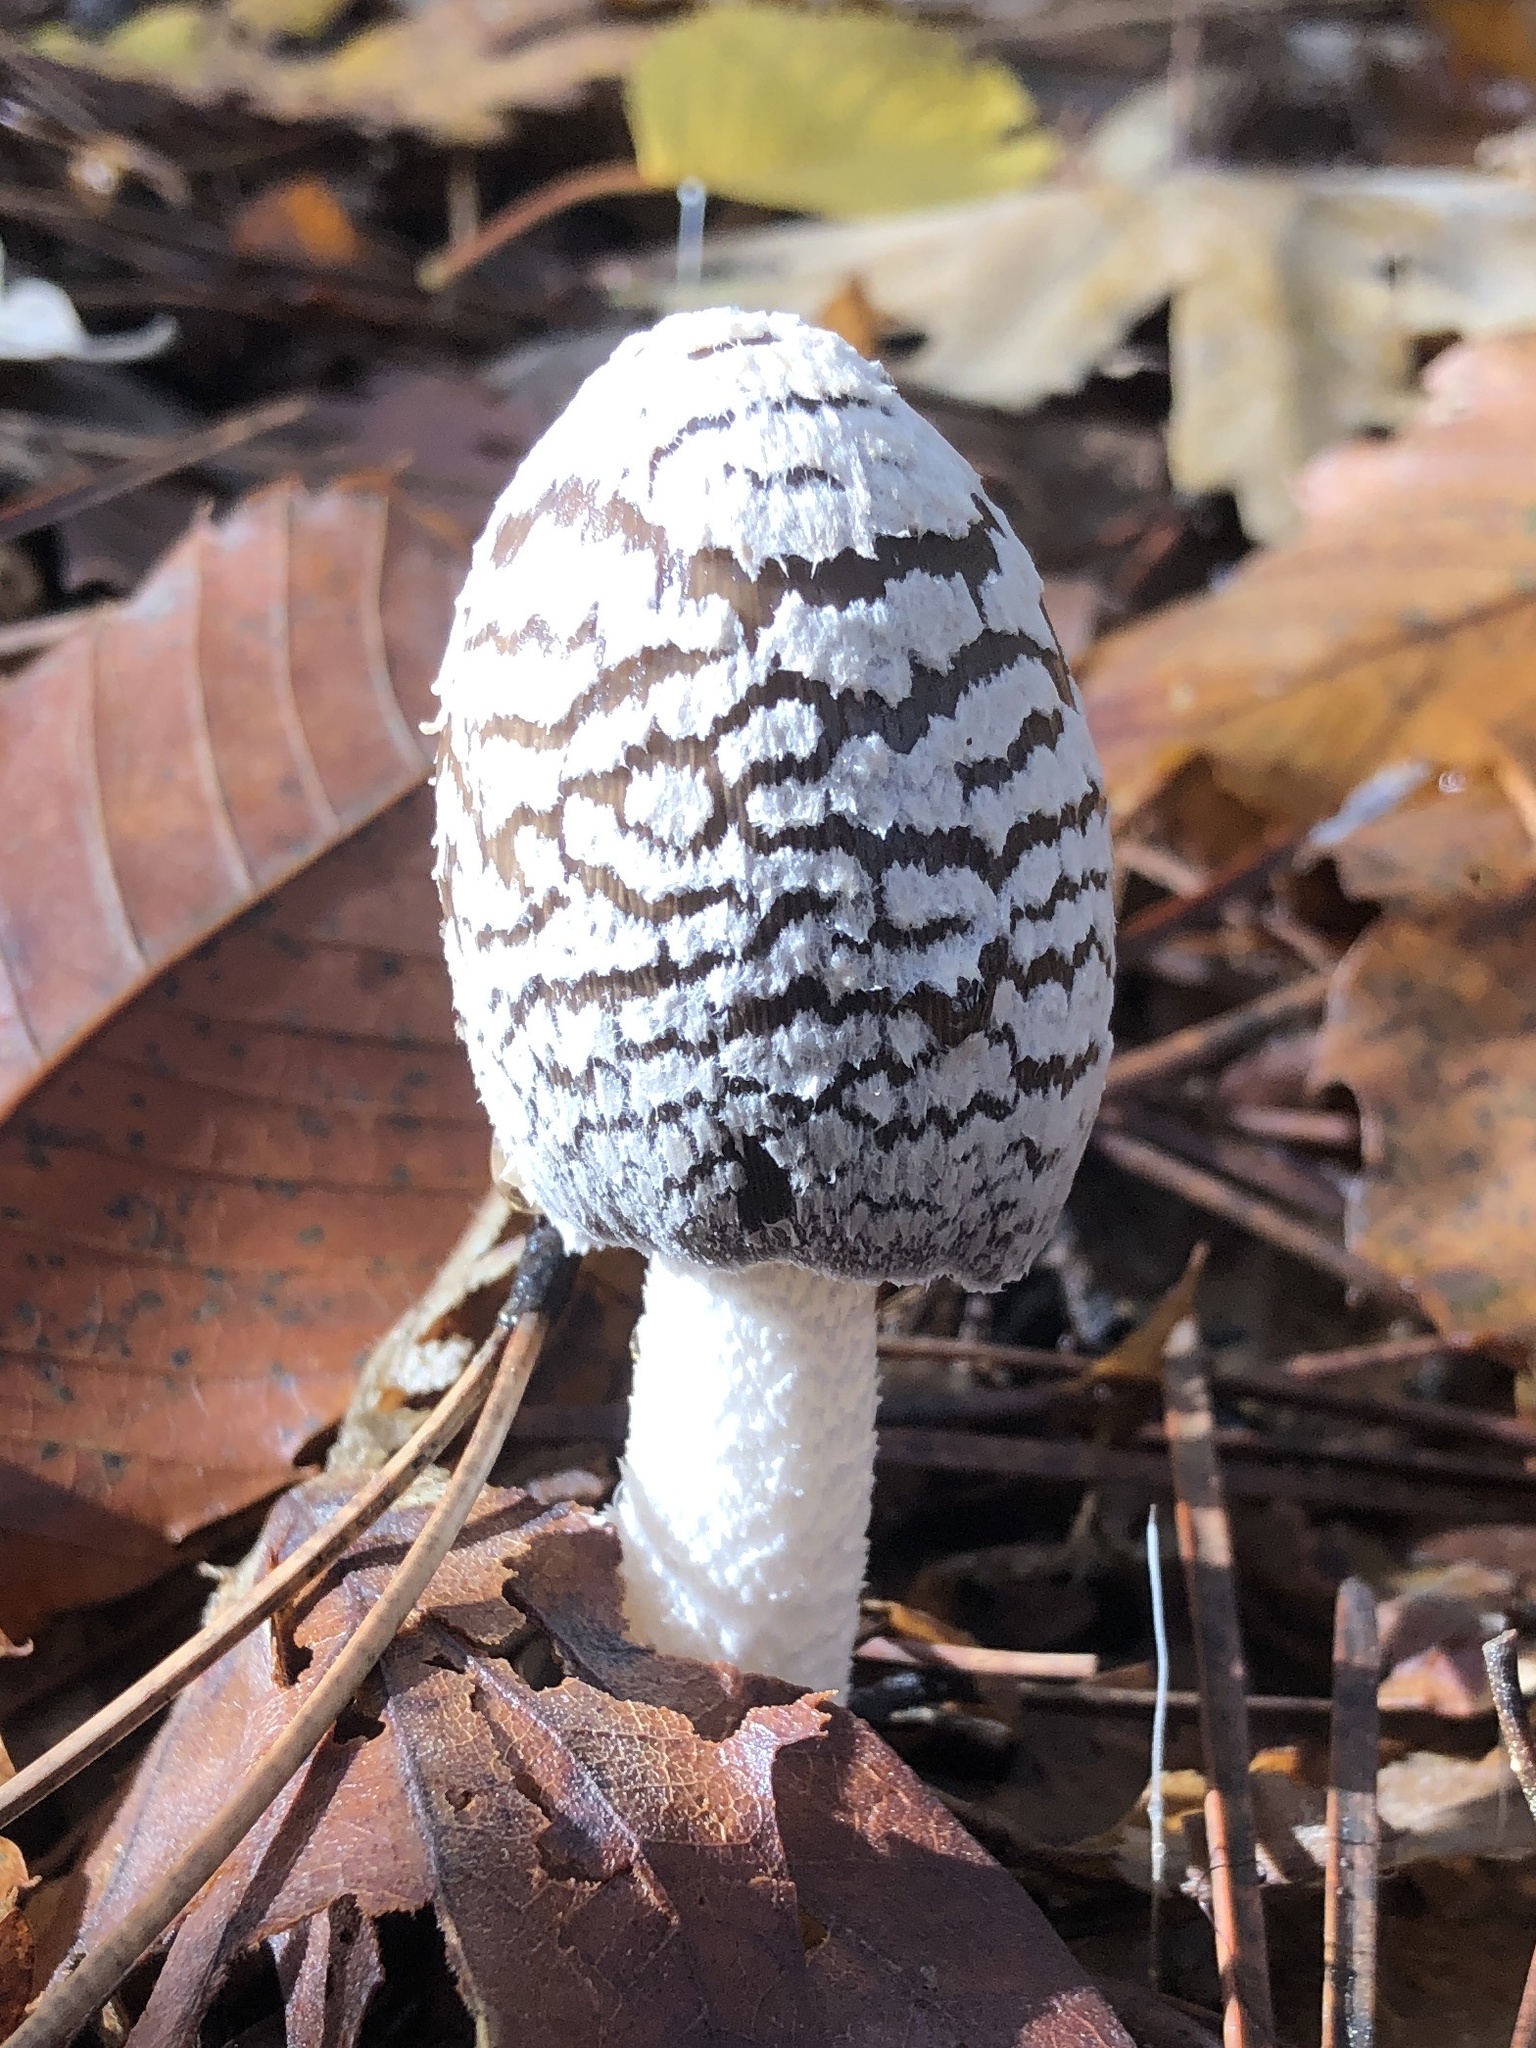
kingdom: Fungi
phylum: Basidiomycota
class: Agaricomycetes
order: Agaricales
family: Psathyrellaceae
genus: Coprinopsis
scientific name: Coprinopsis picacea
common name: Magpie inkcap
